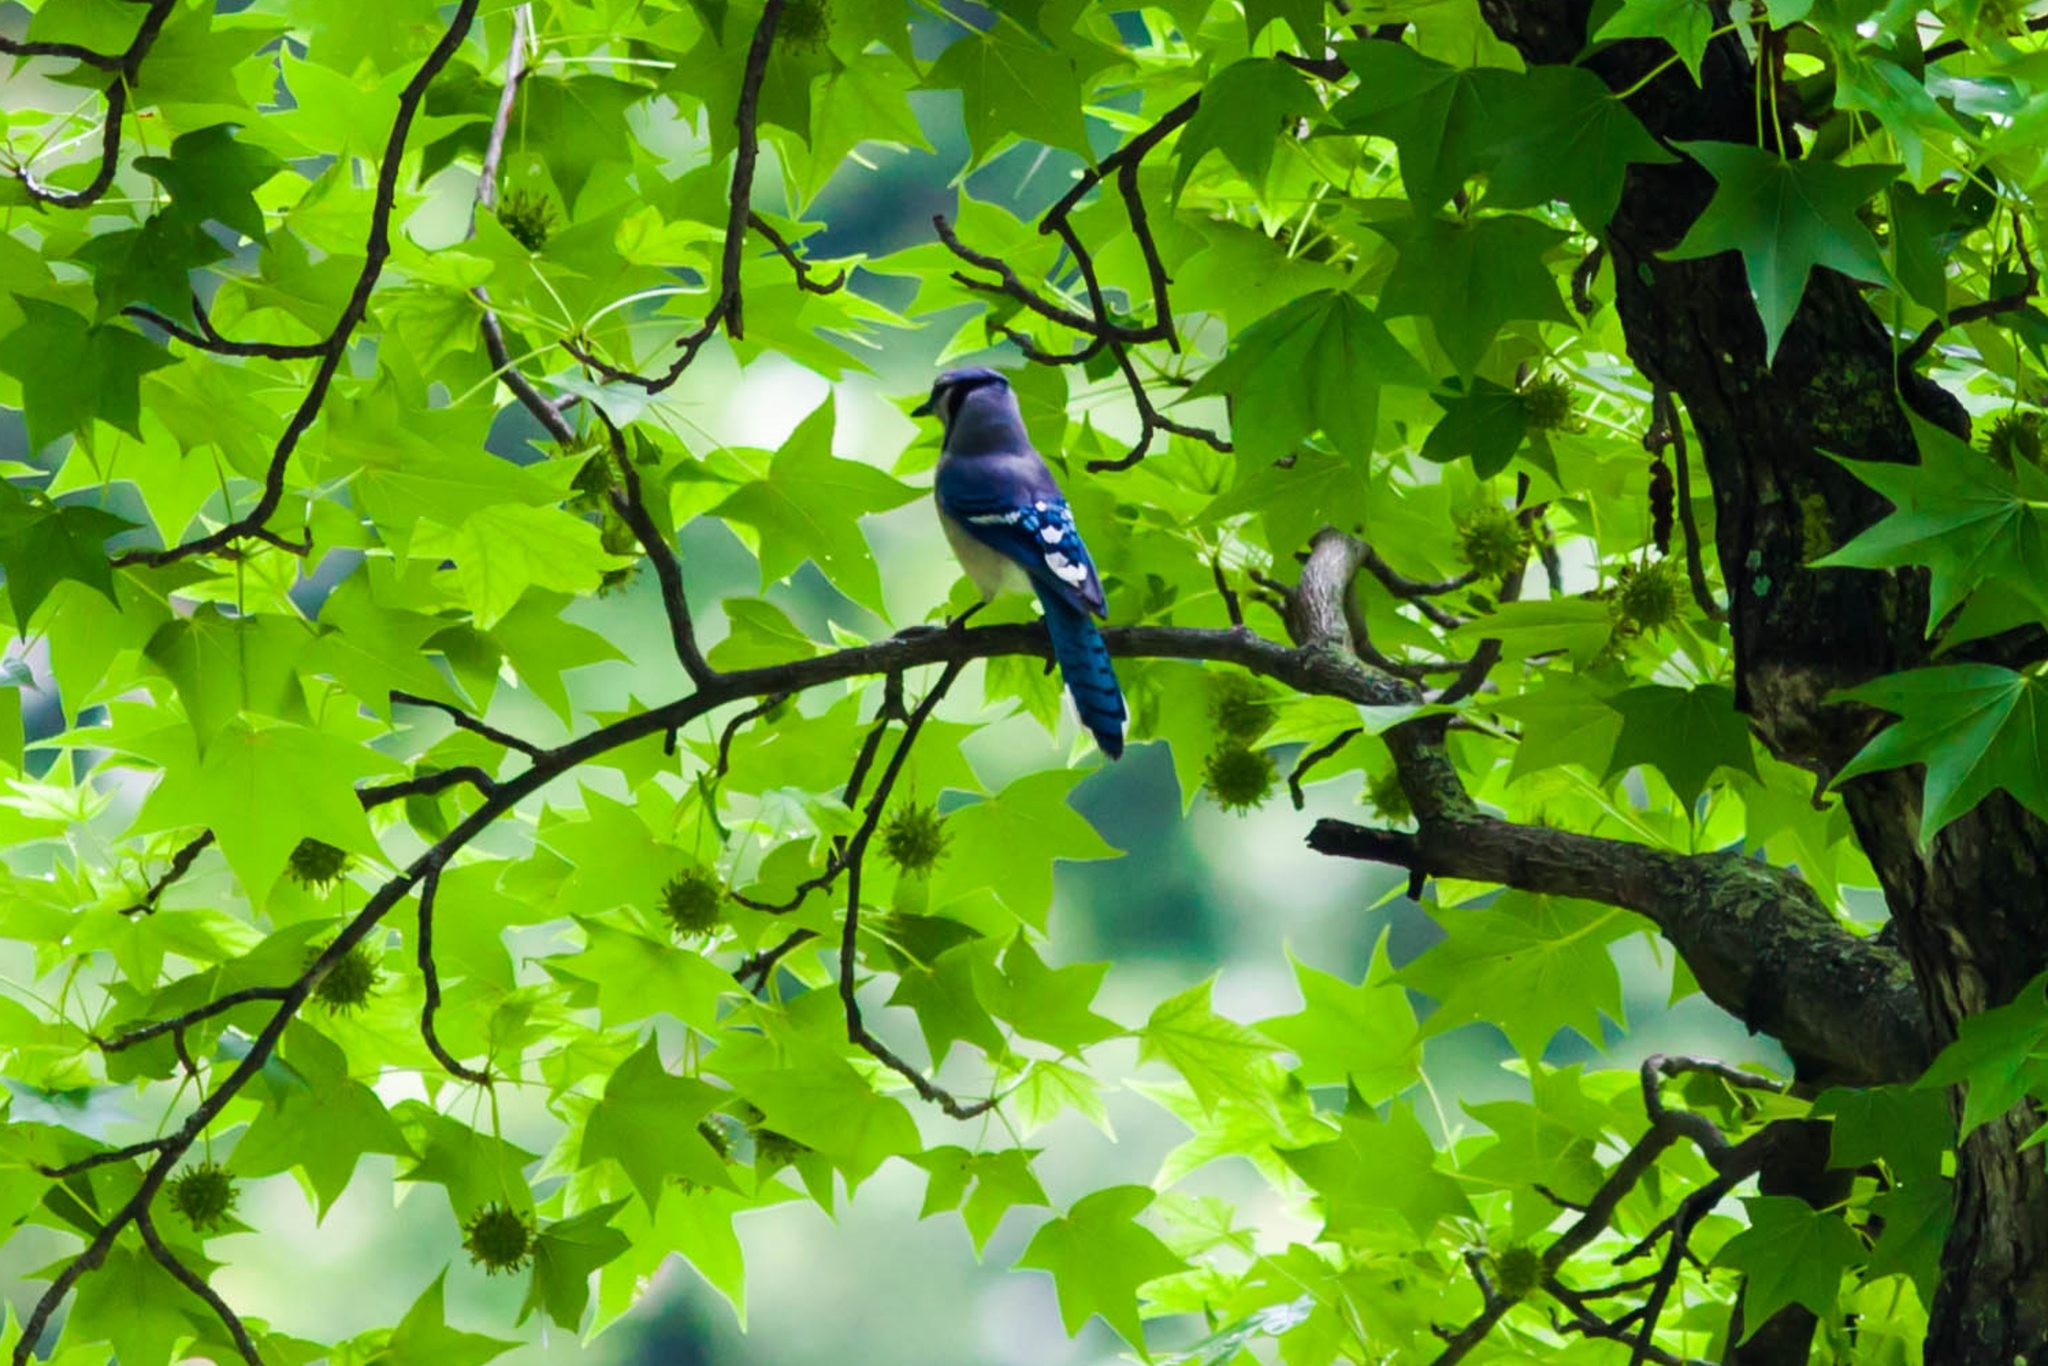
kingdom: Animalia
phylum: Chordata
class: Aves
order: Passeriformes
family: Corvidae
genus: Cyanocitta
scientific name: Cyanocitta cristata
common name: Blue jay
